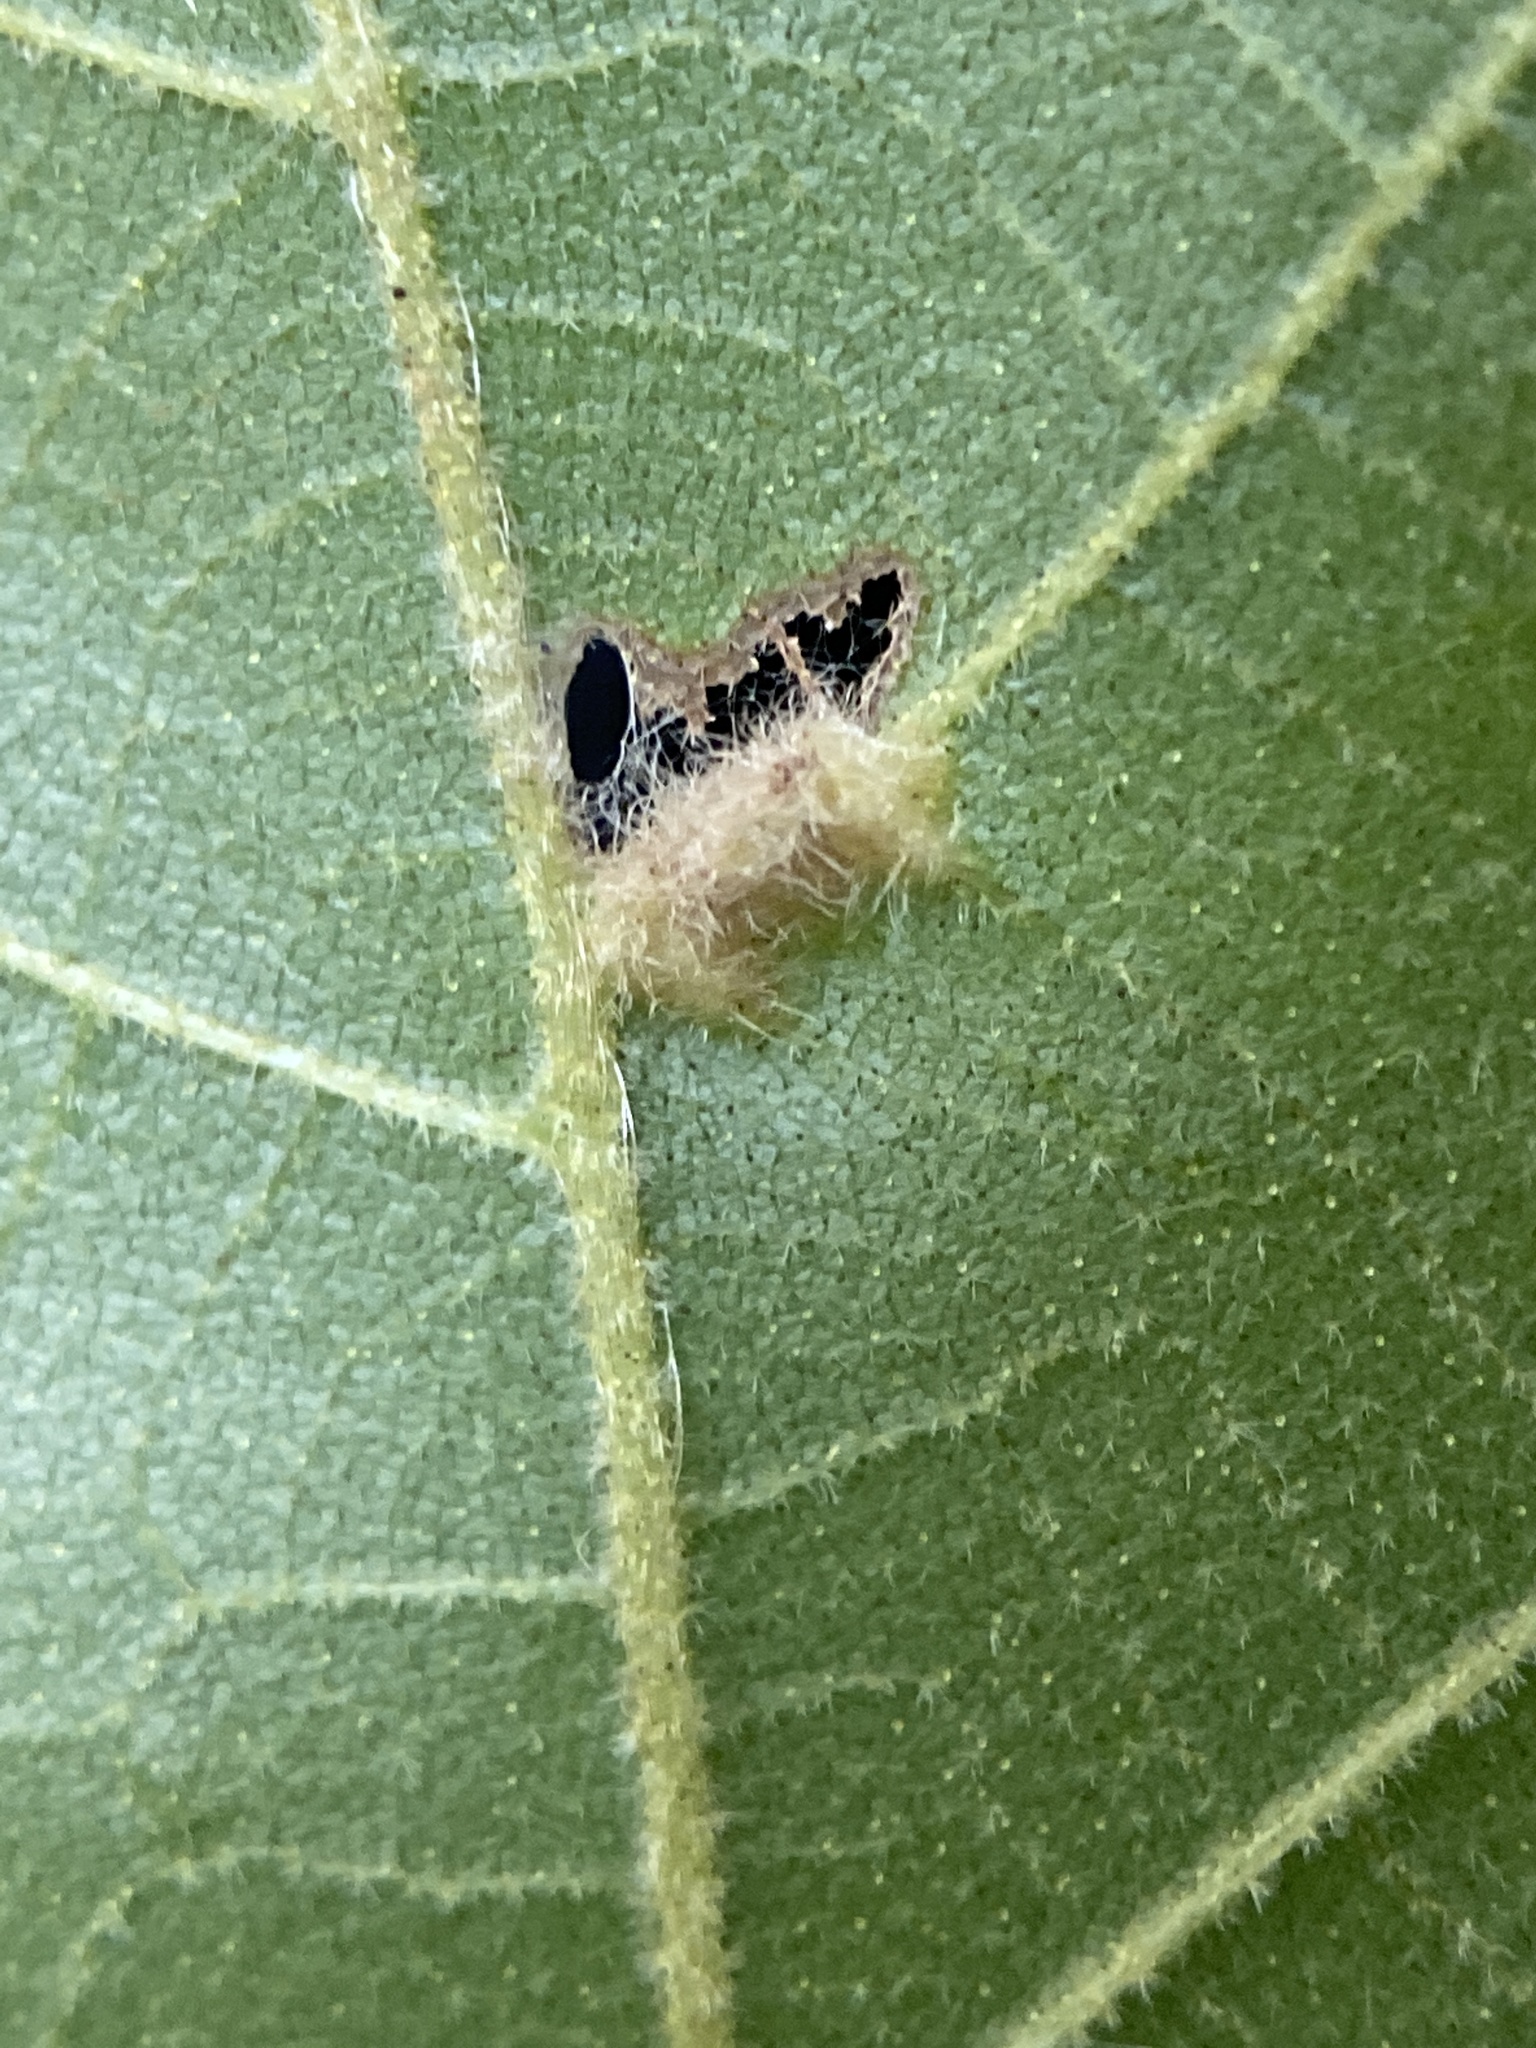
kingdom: Animalia
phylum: Arthropoda
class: Insecta
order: Hemiptera
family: Phylloxeridae
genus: Phylloxera
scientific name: Phylloxera caryaevenae
